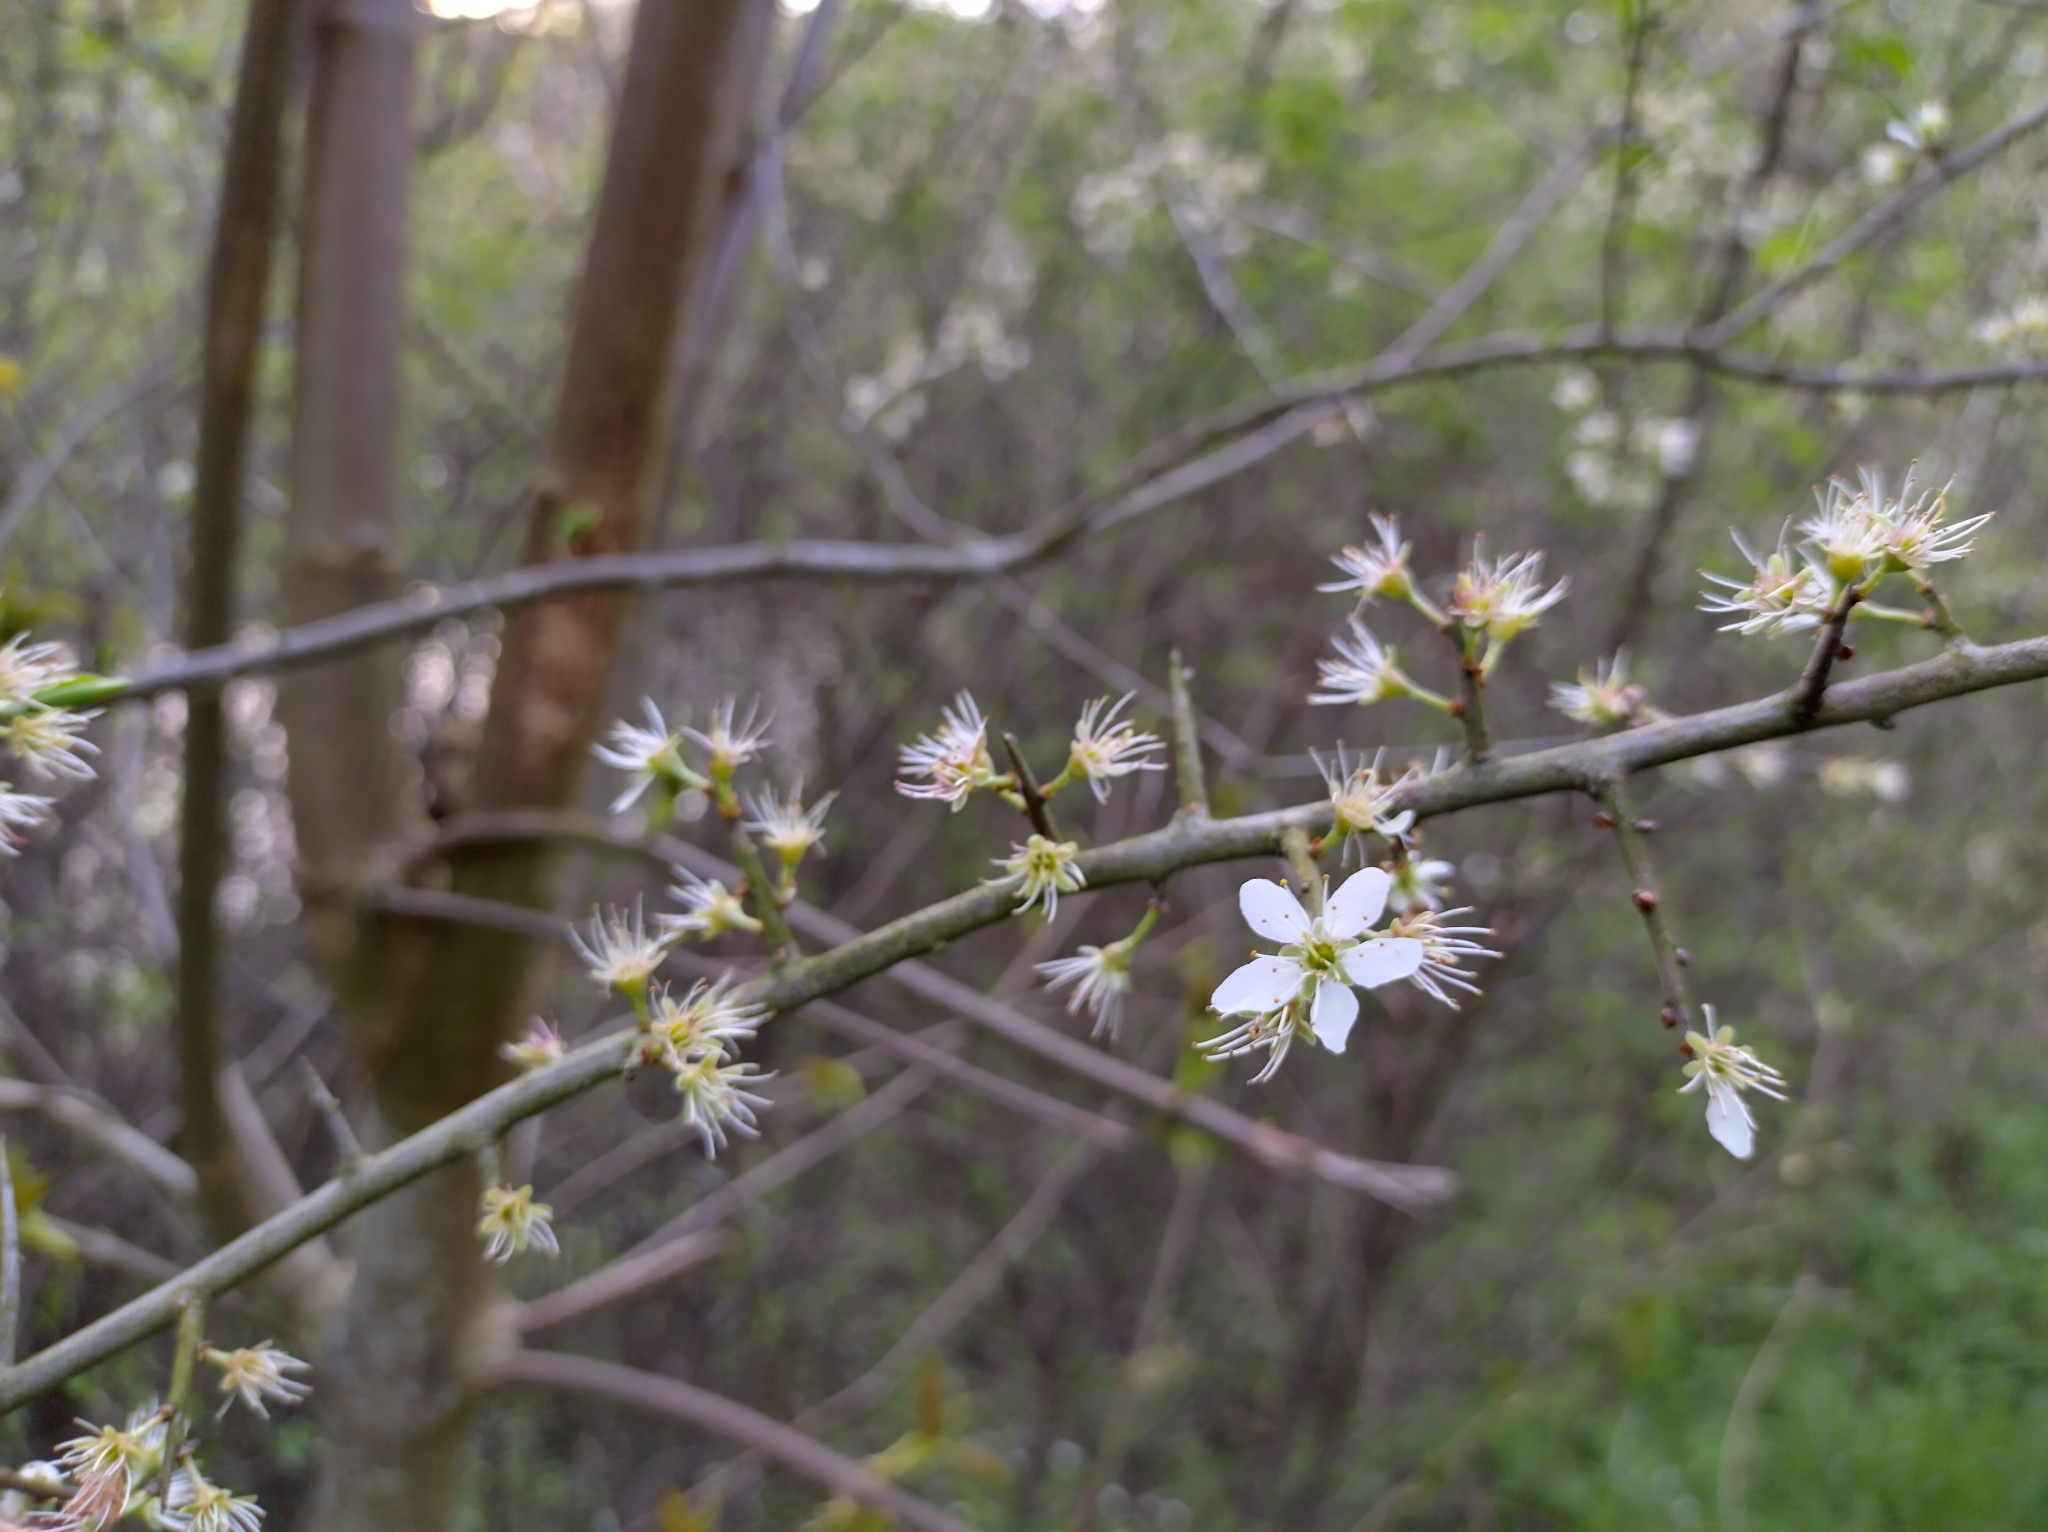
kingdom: Plantae
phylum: Tracheophyta
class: Magnoliopsida
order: Rosales
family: Rosaceae
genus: Prunus
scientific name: Prunus spinosa
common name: Blackthorn
